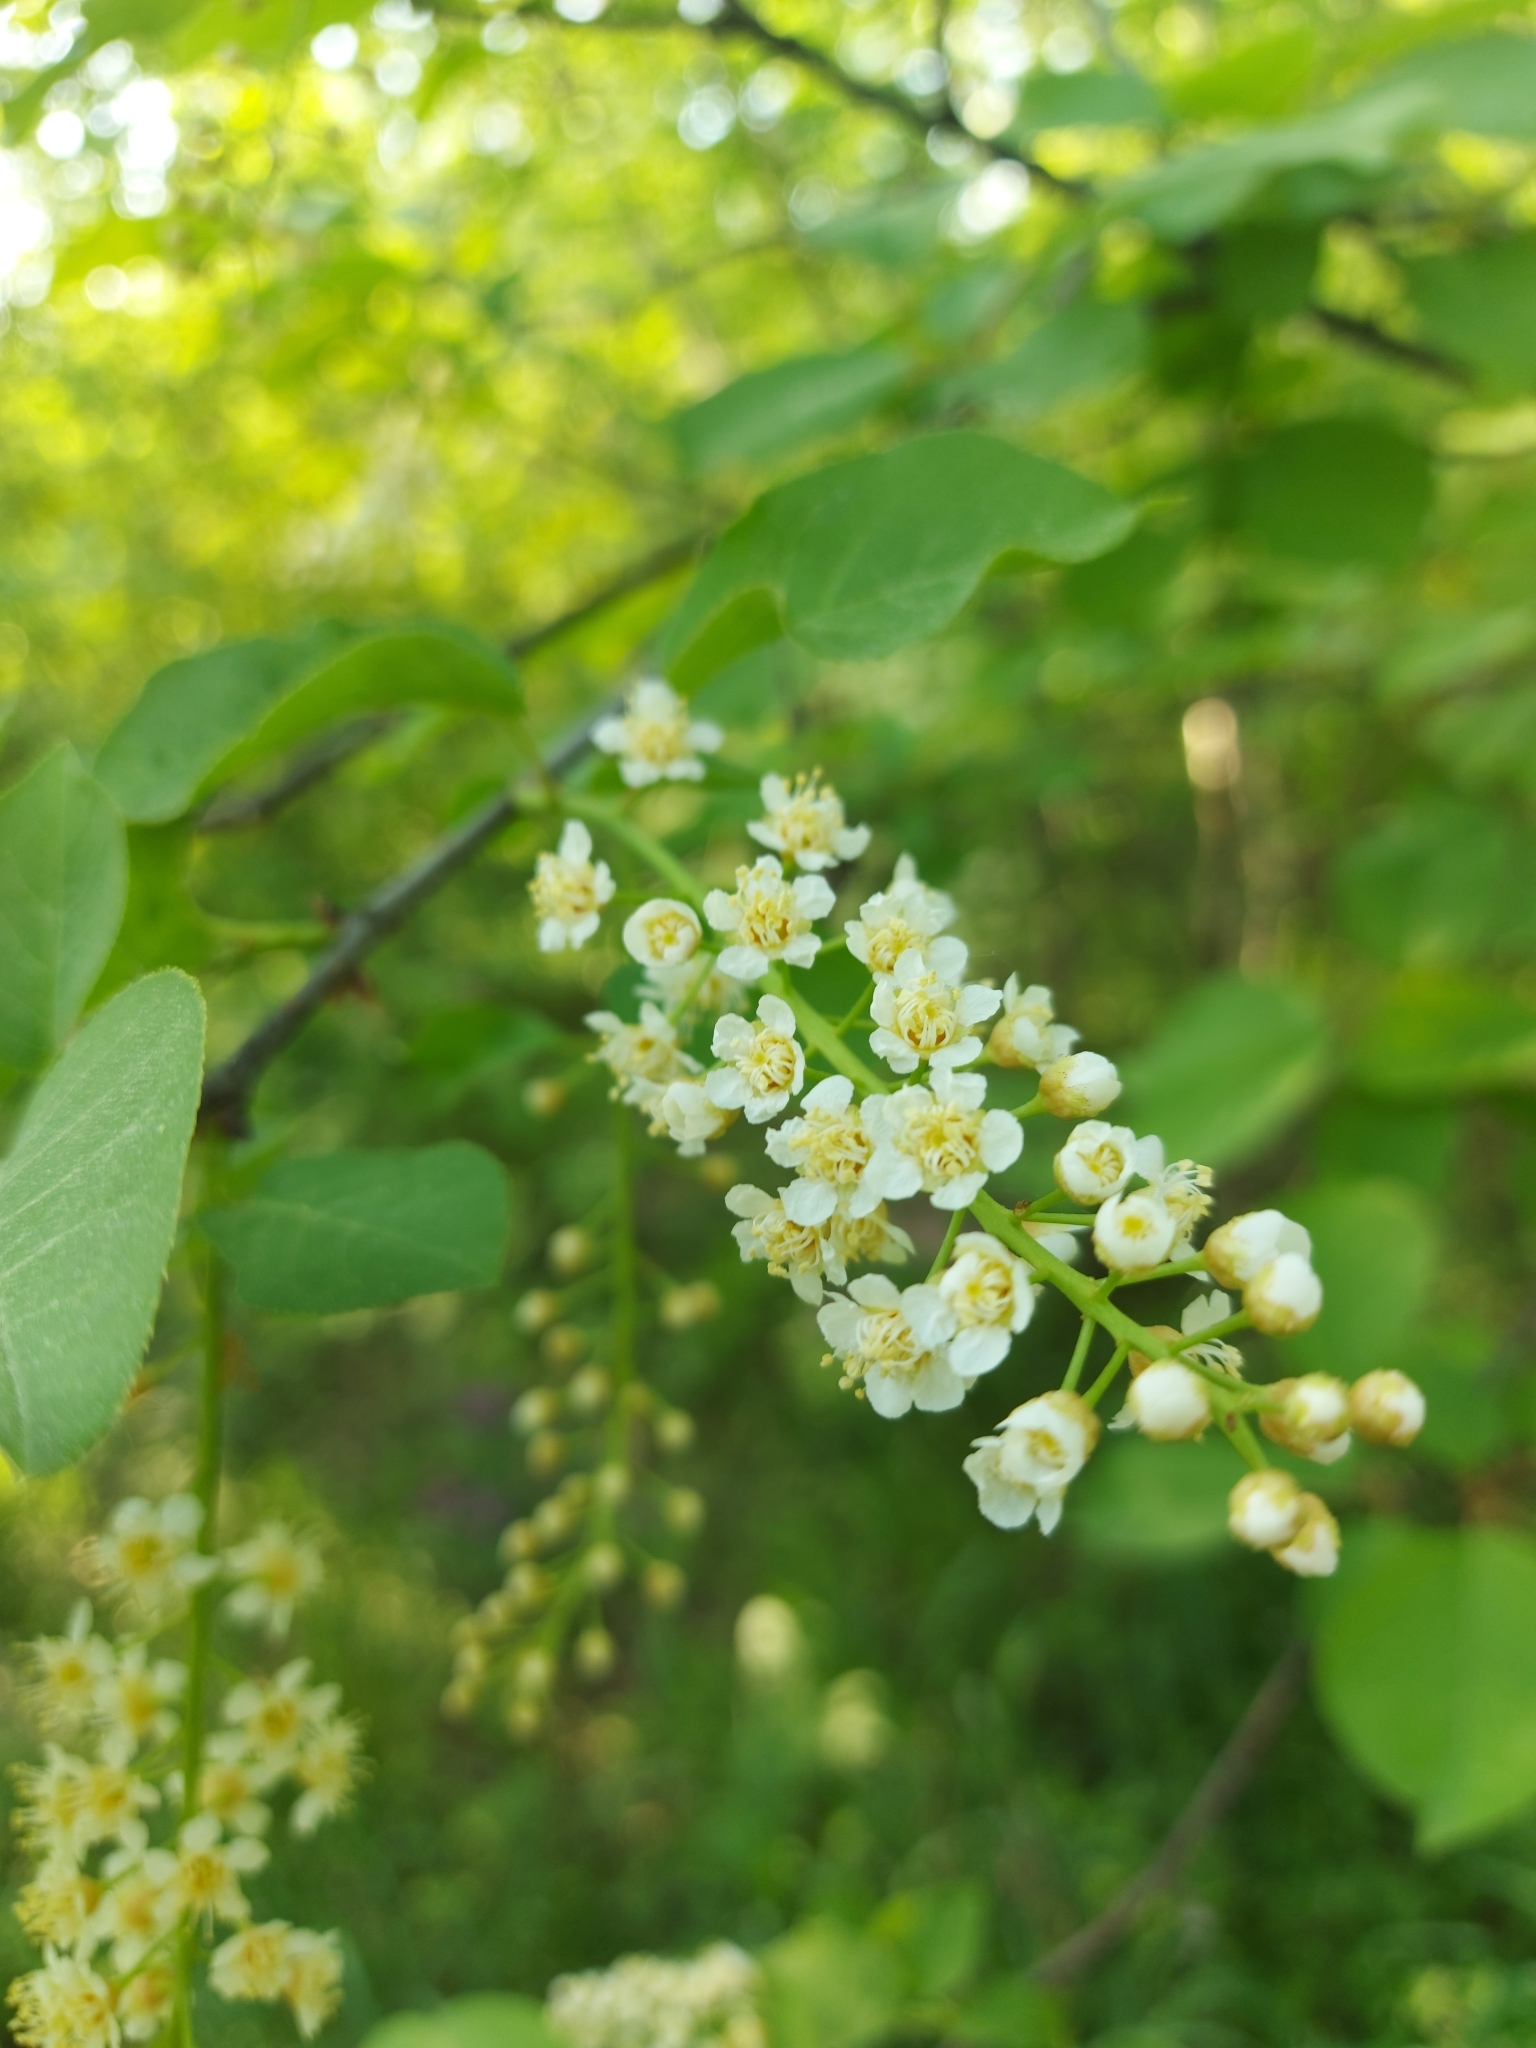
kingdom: Plantae
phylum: Tracheophyta
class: Magnoliopsida
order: Rosales
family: Rosaceae
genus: Prunus
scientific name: Prunus padus
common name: Bird cherry
